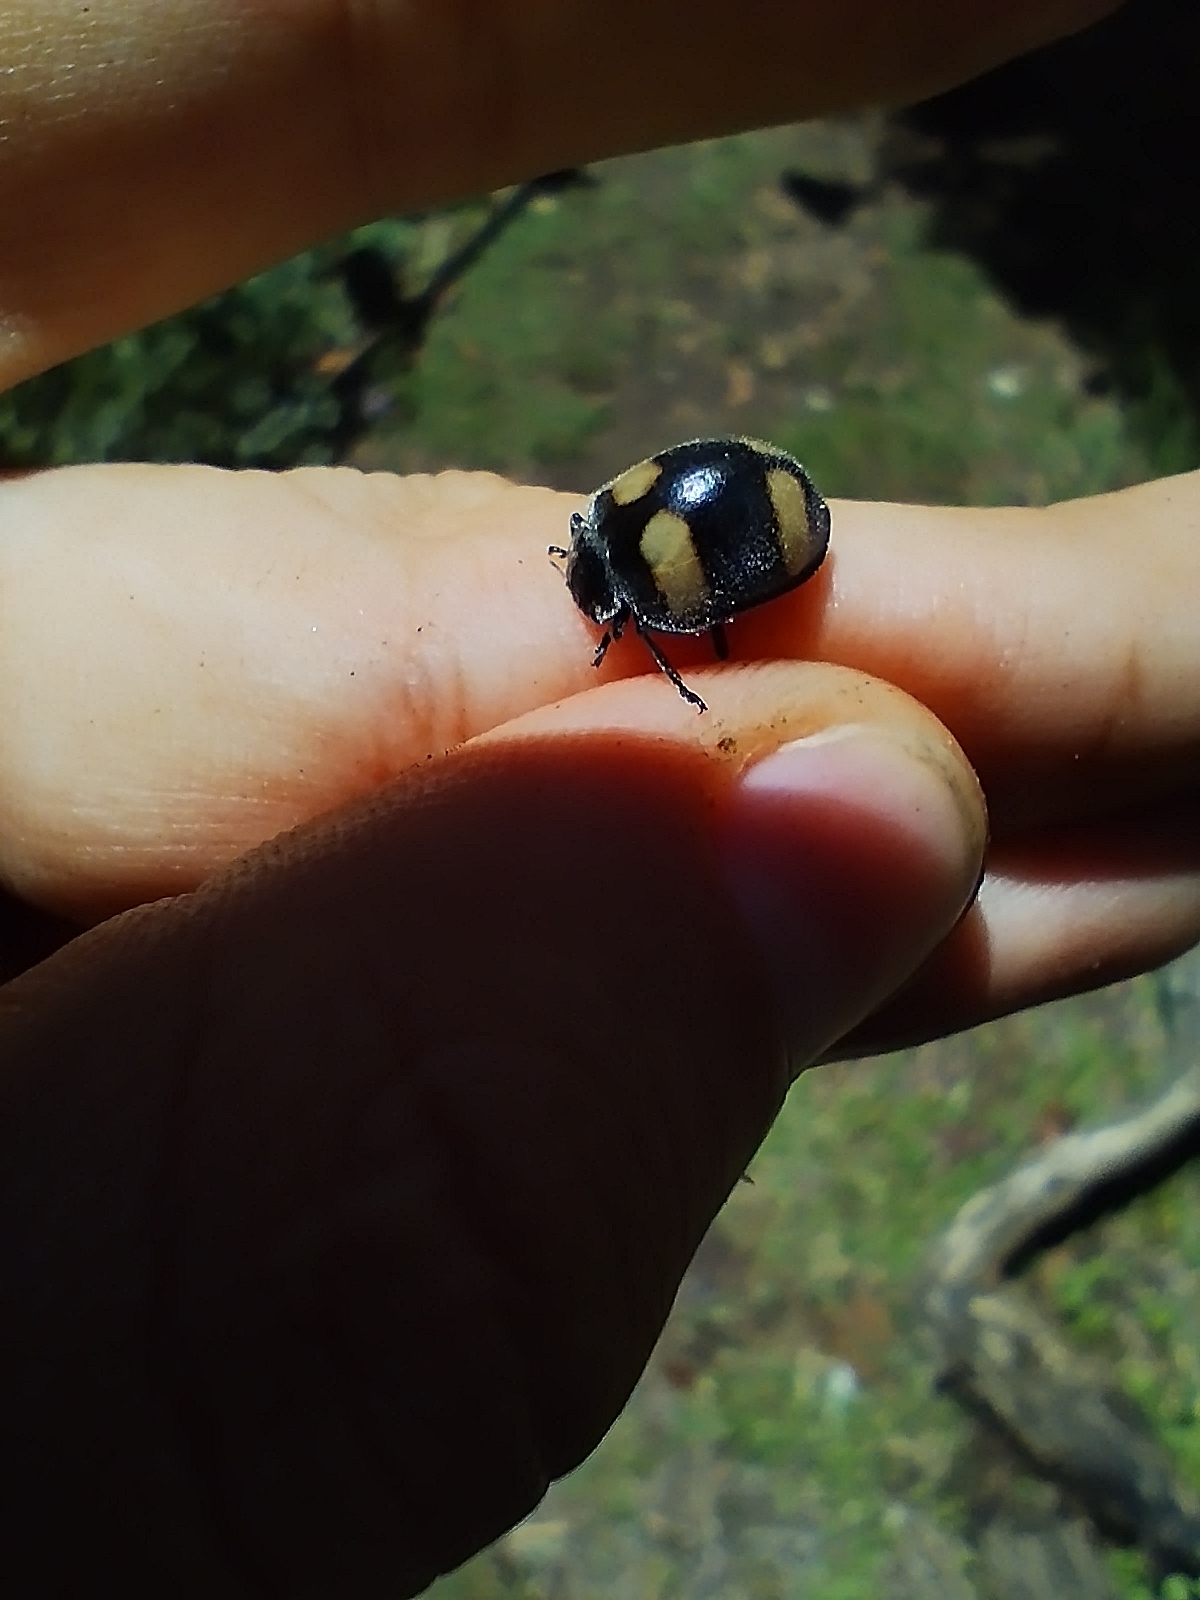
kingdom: Animalia
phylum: Arthropoda
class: Insecta
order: Coleoptera
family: Coccinellidae
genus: Toxotoma
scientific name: Toxotoma flavofasciata
